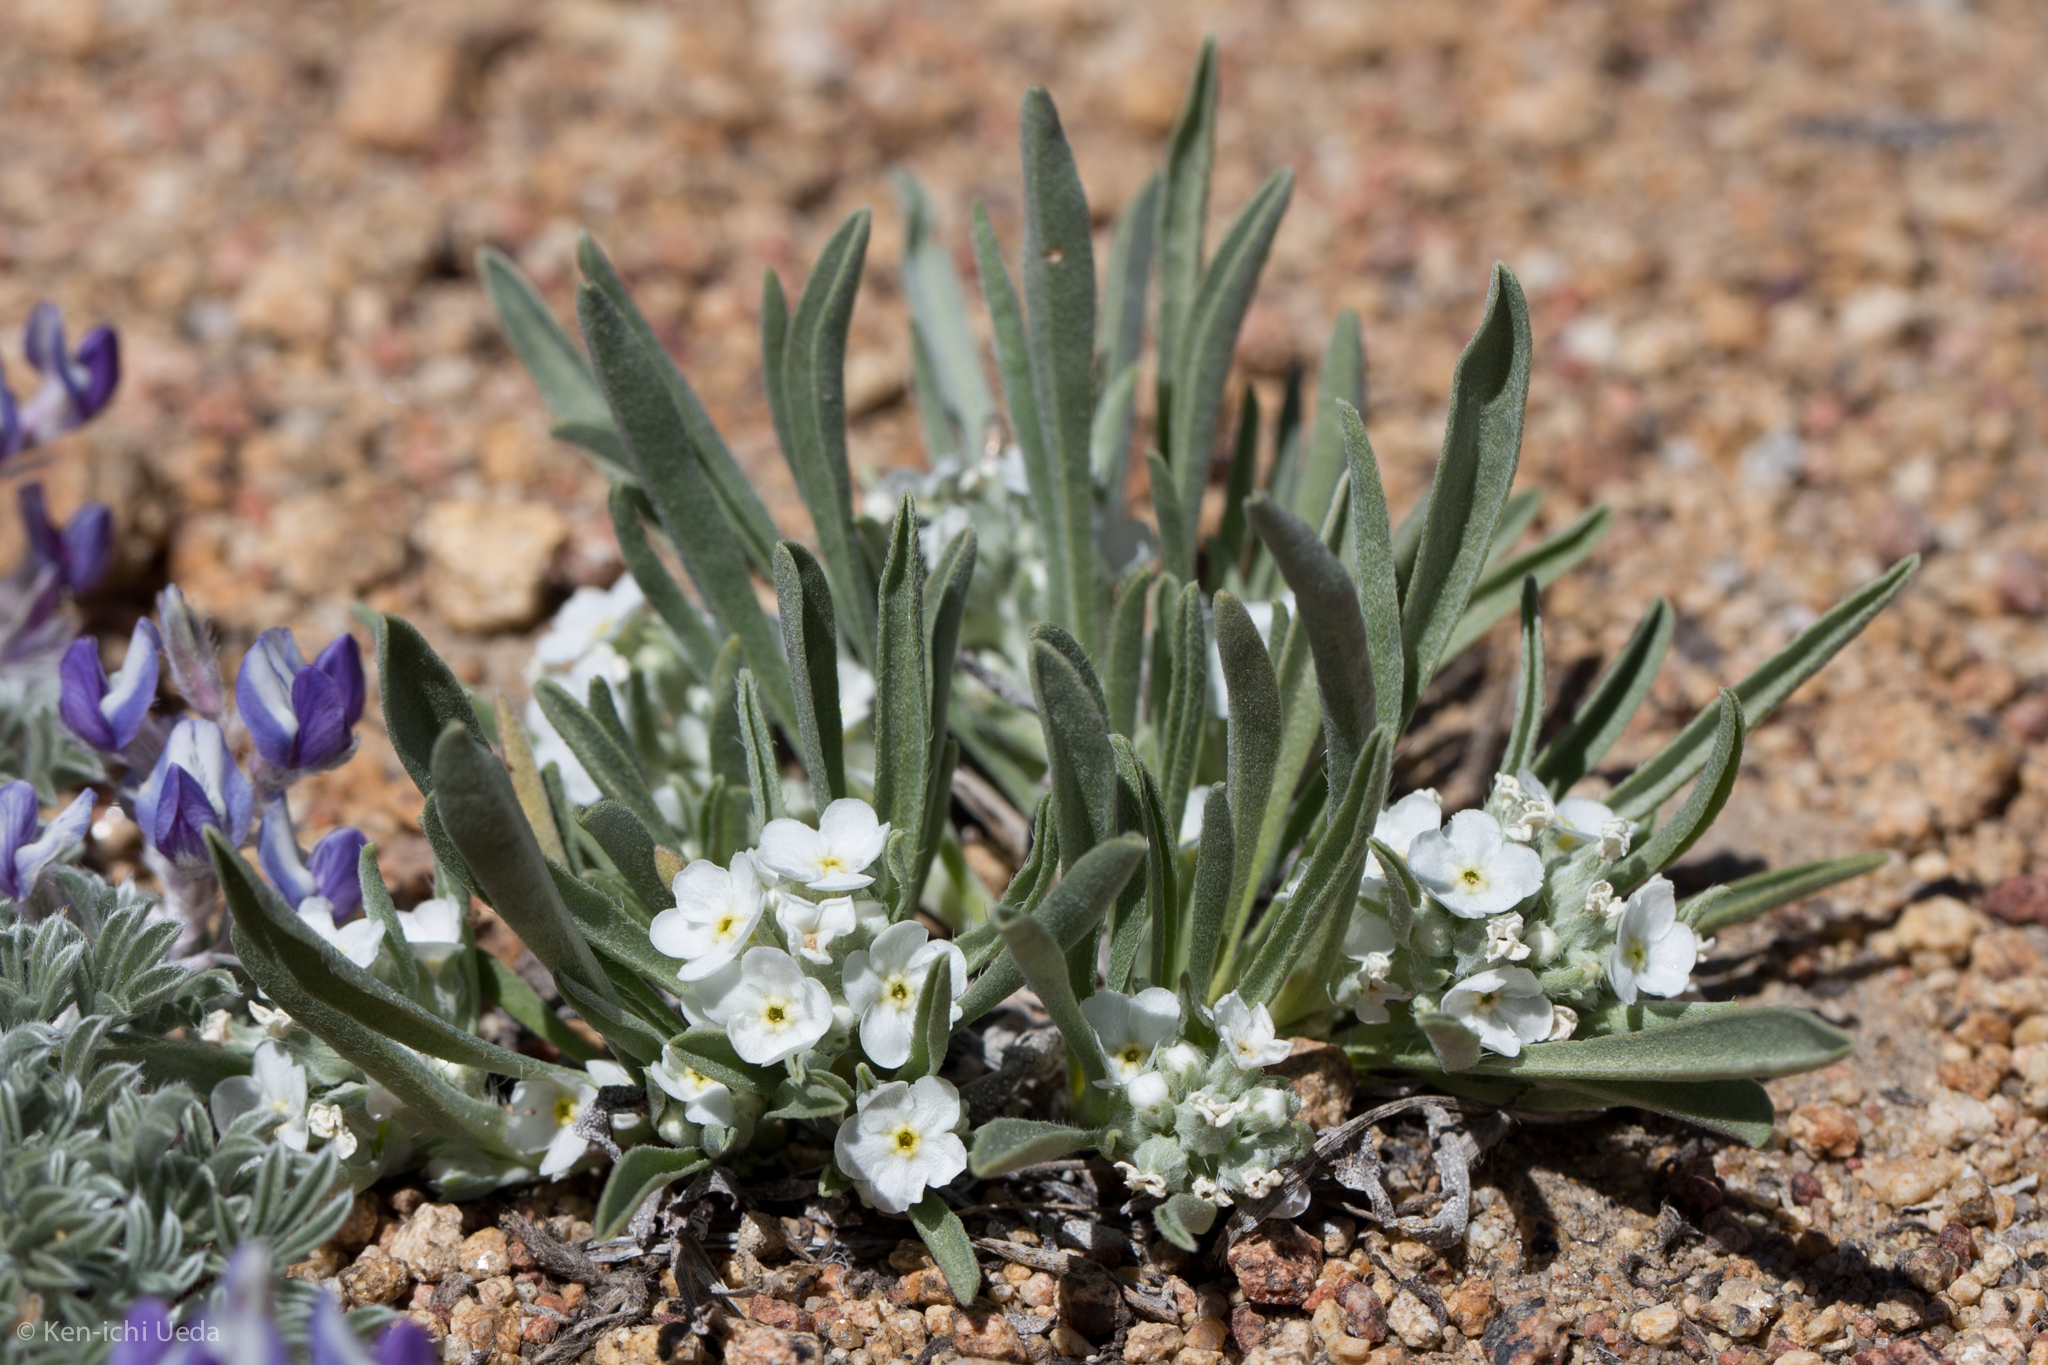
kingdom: Plantae
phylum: Tracheophyta
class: Magnoliopsida
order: Boraginales
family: Boraginaceae
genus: Oreocarya
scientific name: Oreocarya abortiva
